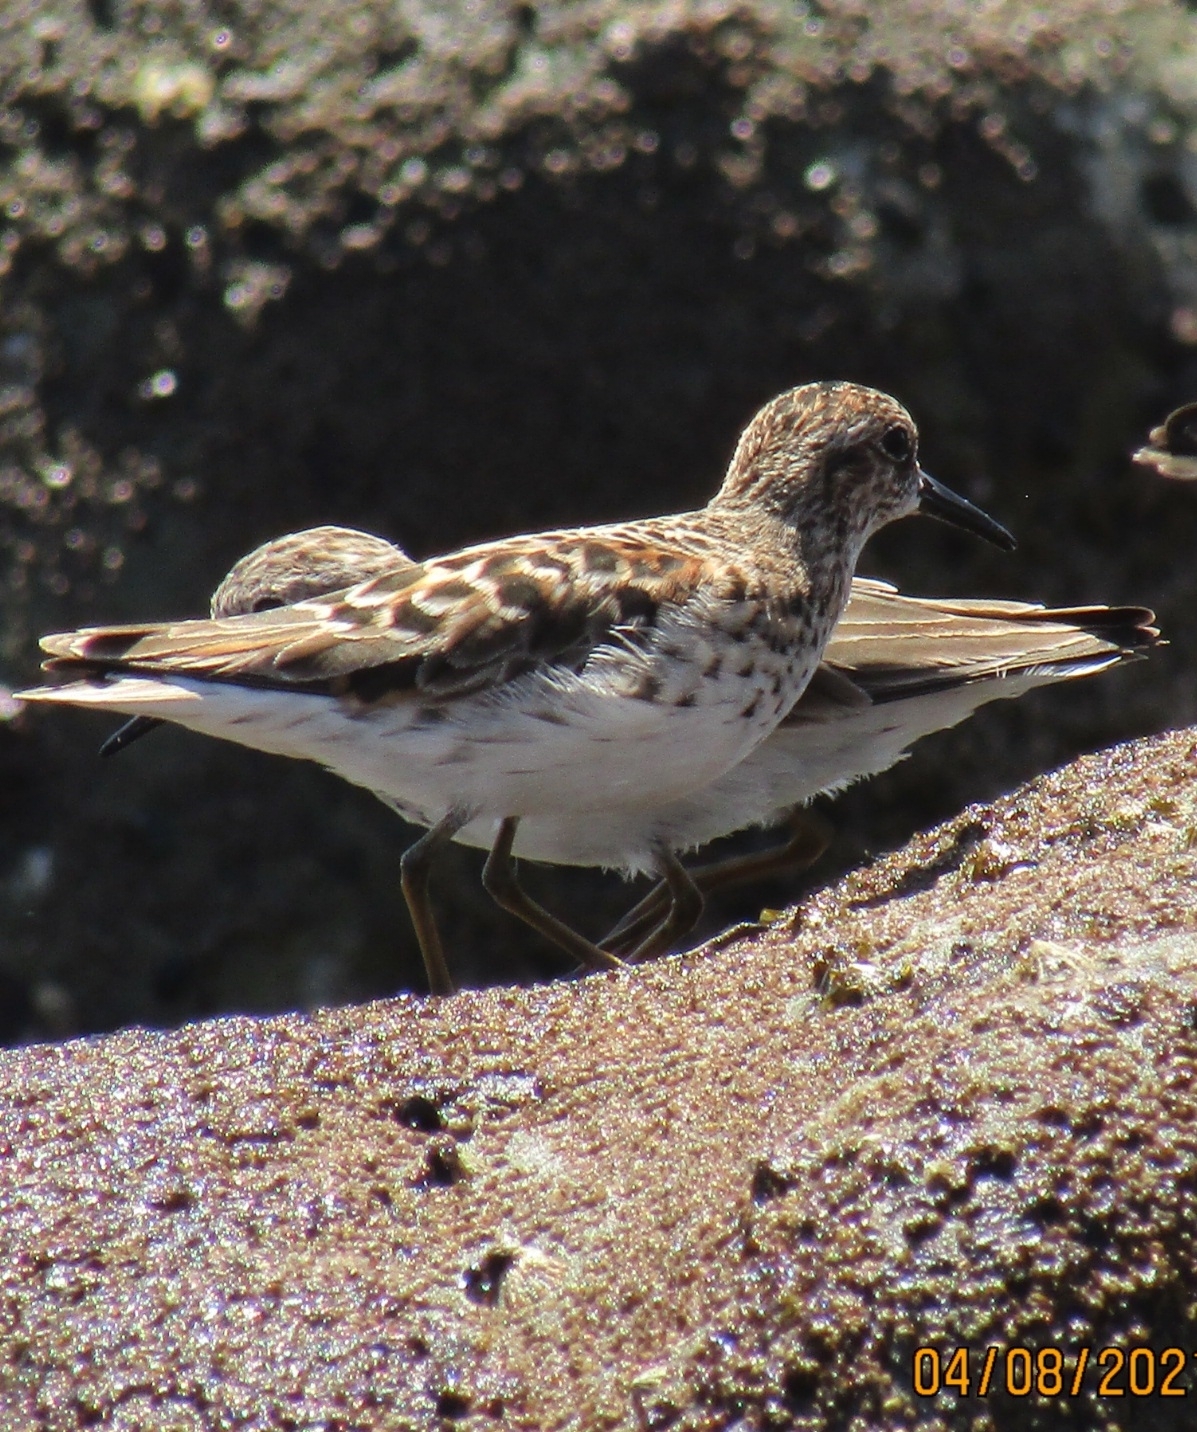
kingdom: Animalia
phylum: Chordata
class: Aves
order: Charadriiformes
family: Scolopacidae
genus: Calidris
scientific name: Calidris minutilla
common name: Least sandpiper
